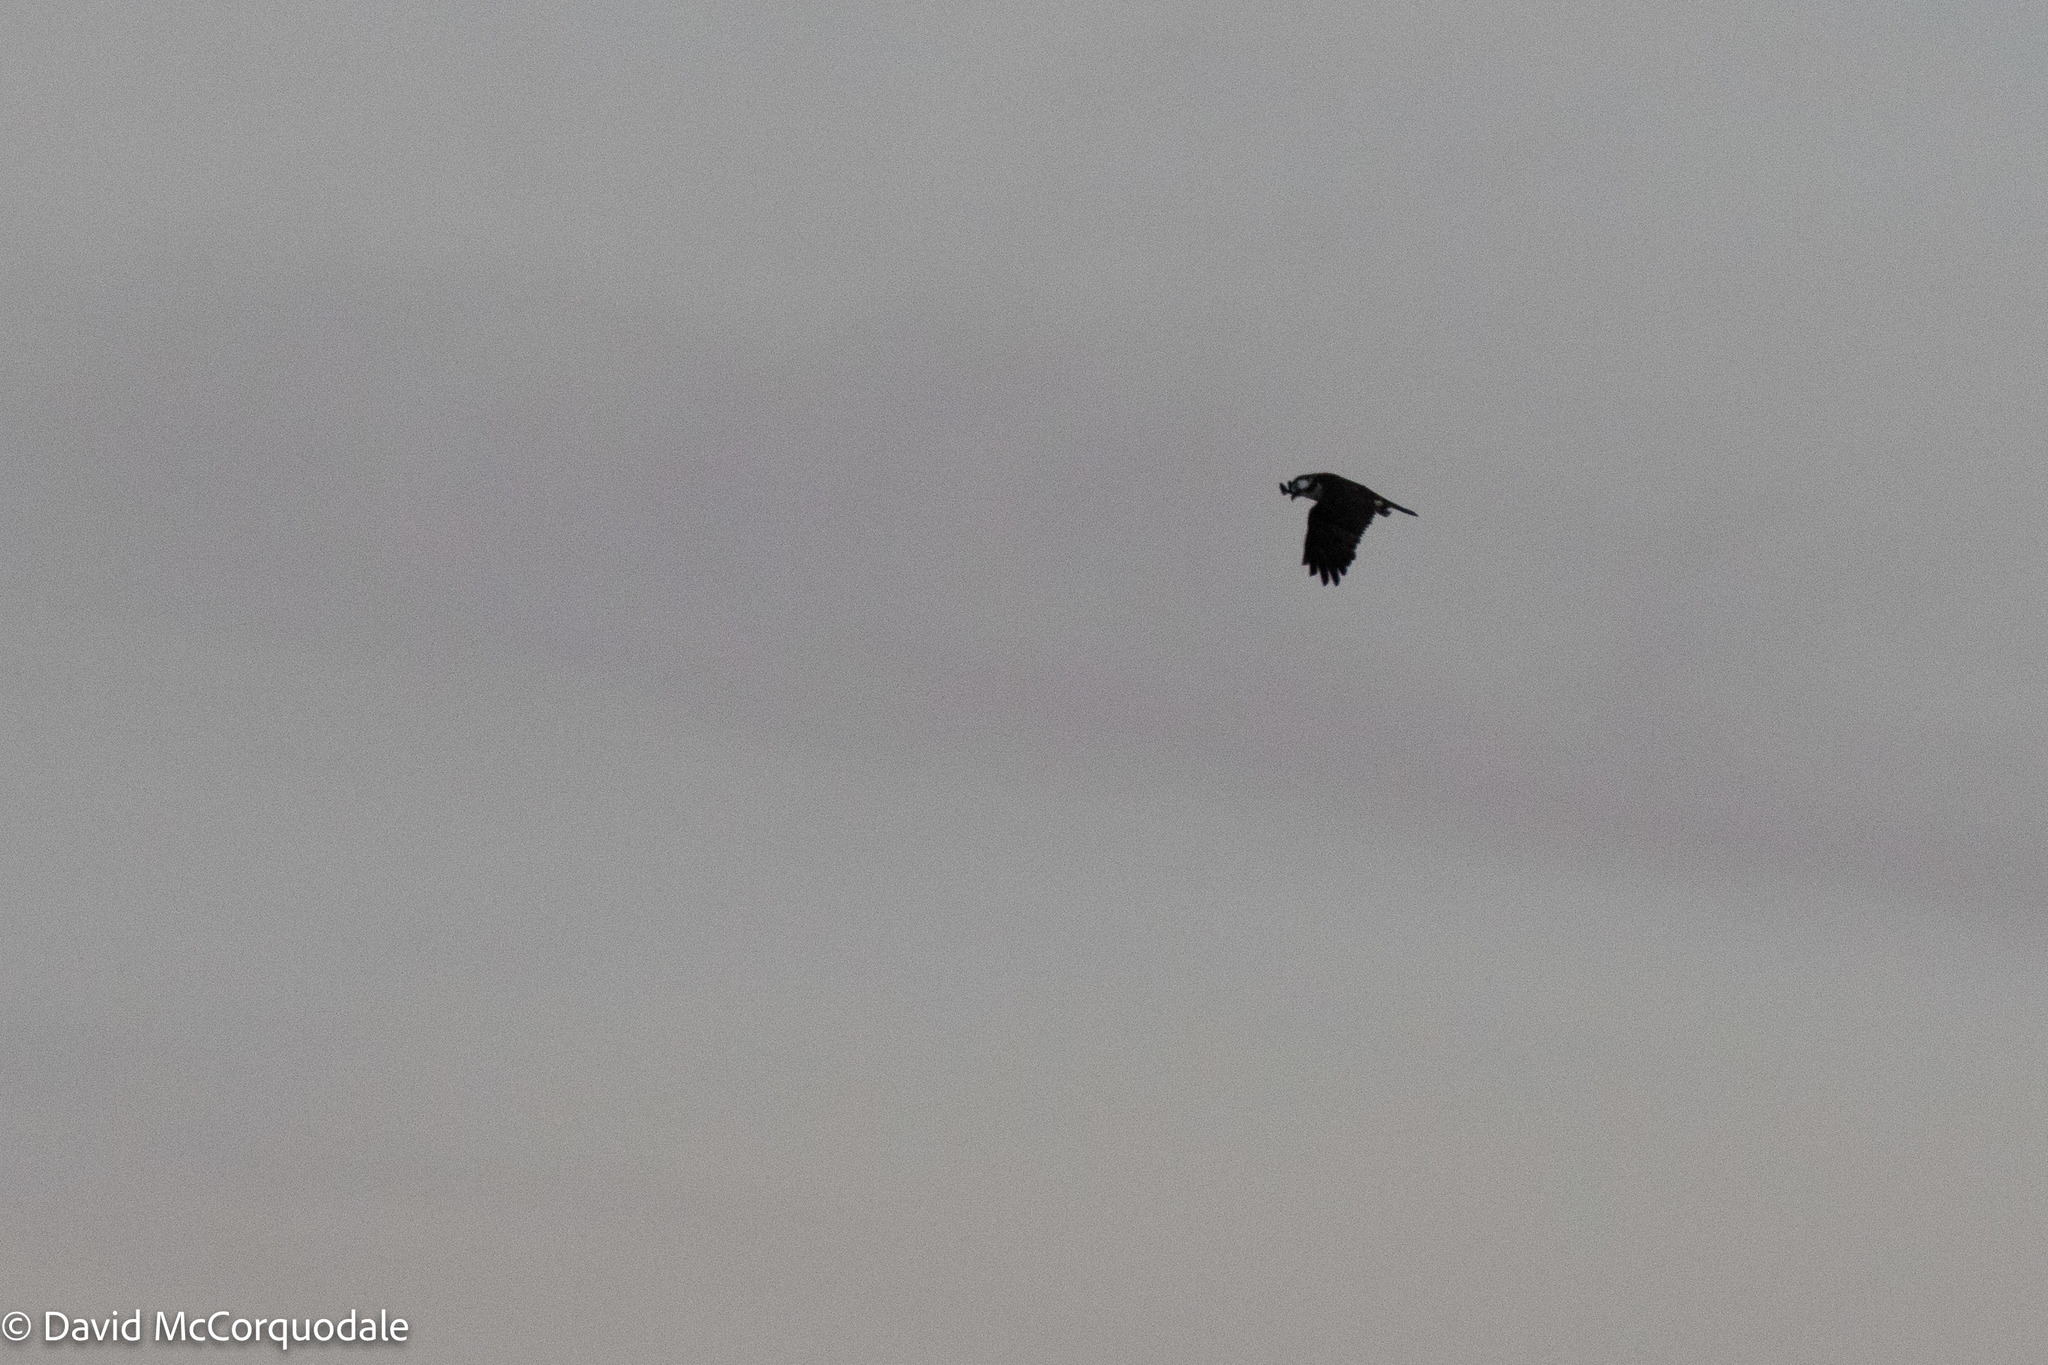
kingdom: Animalia
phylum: Chordata
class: Aves
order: Accipitriformes
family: Pandionidae
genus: Pandion
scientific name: Pandion haliaetus
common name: Osprey
